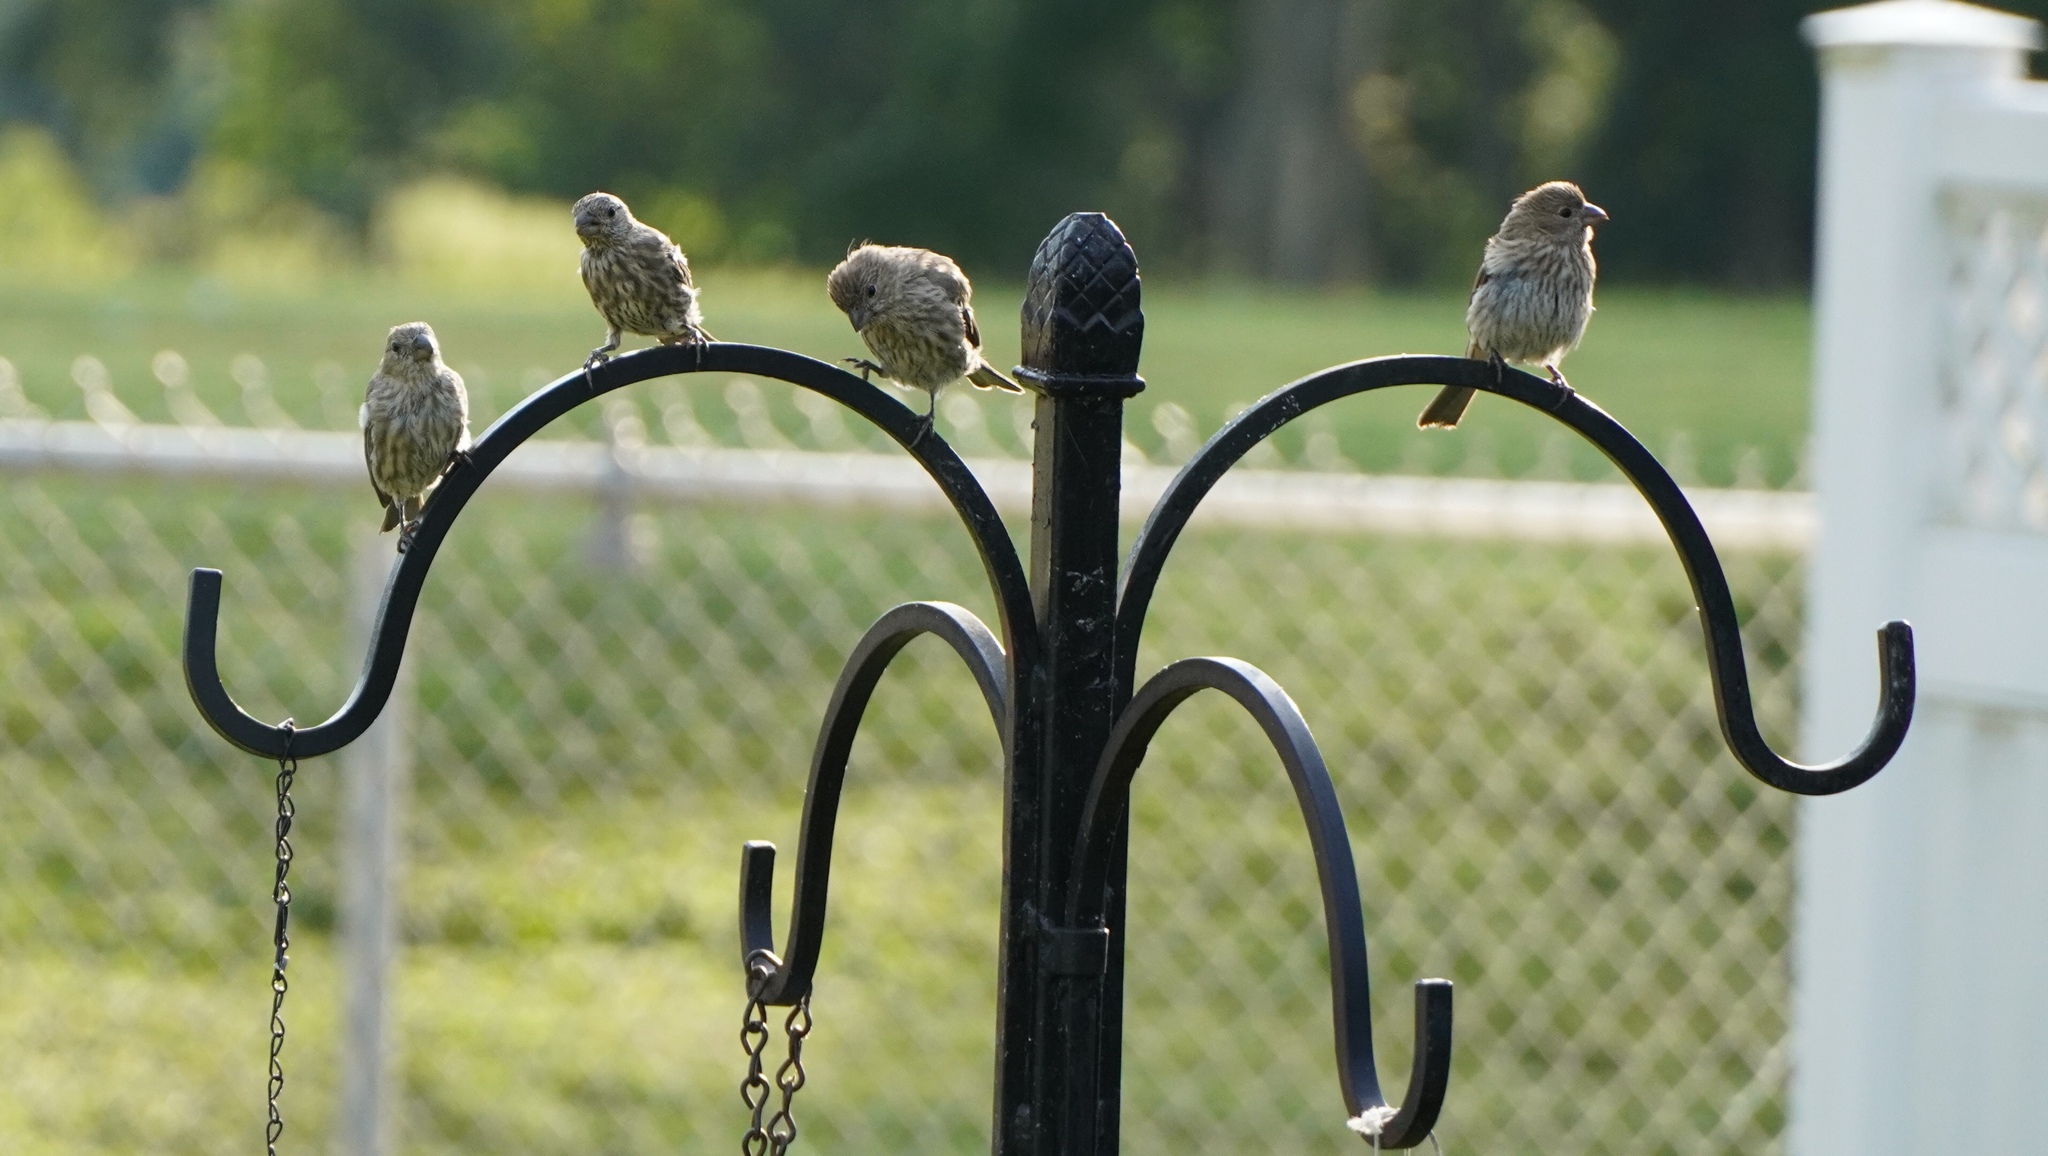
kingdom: Animalia
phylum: Chordata
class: Aves
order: Passeriformes
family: Fringillidae
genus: Haemorhous
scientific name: Haemorhous mexicanus
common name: House finch
